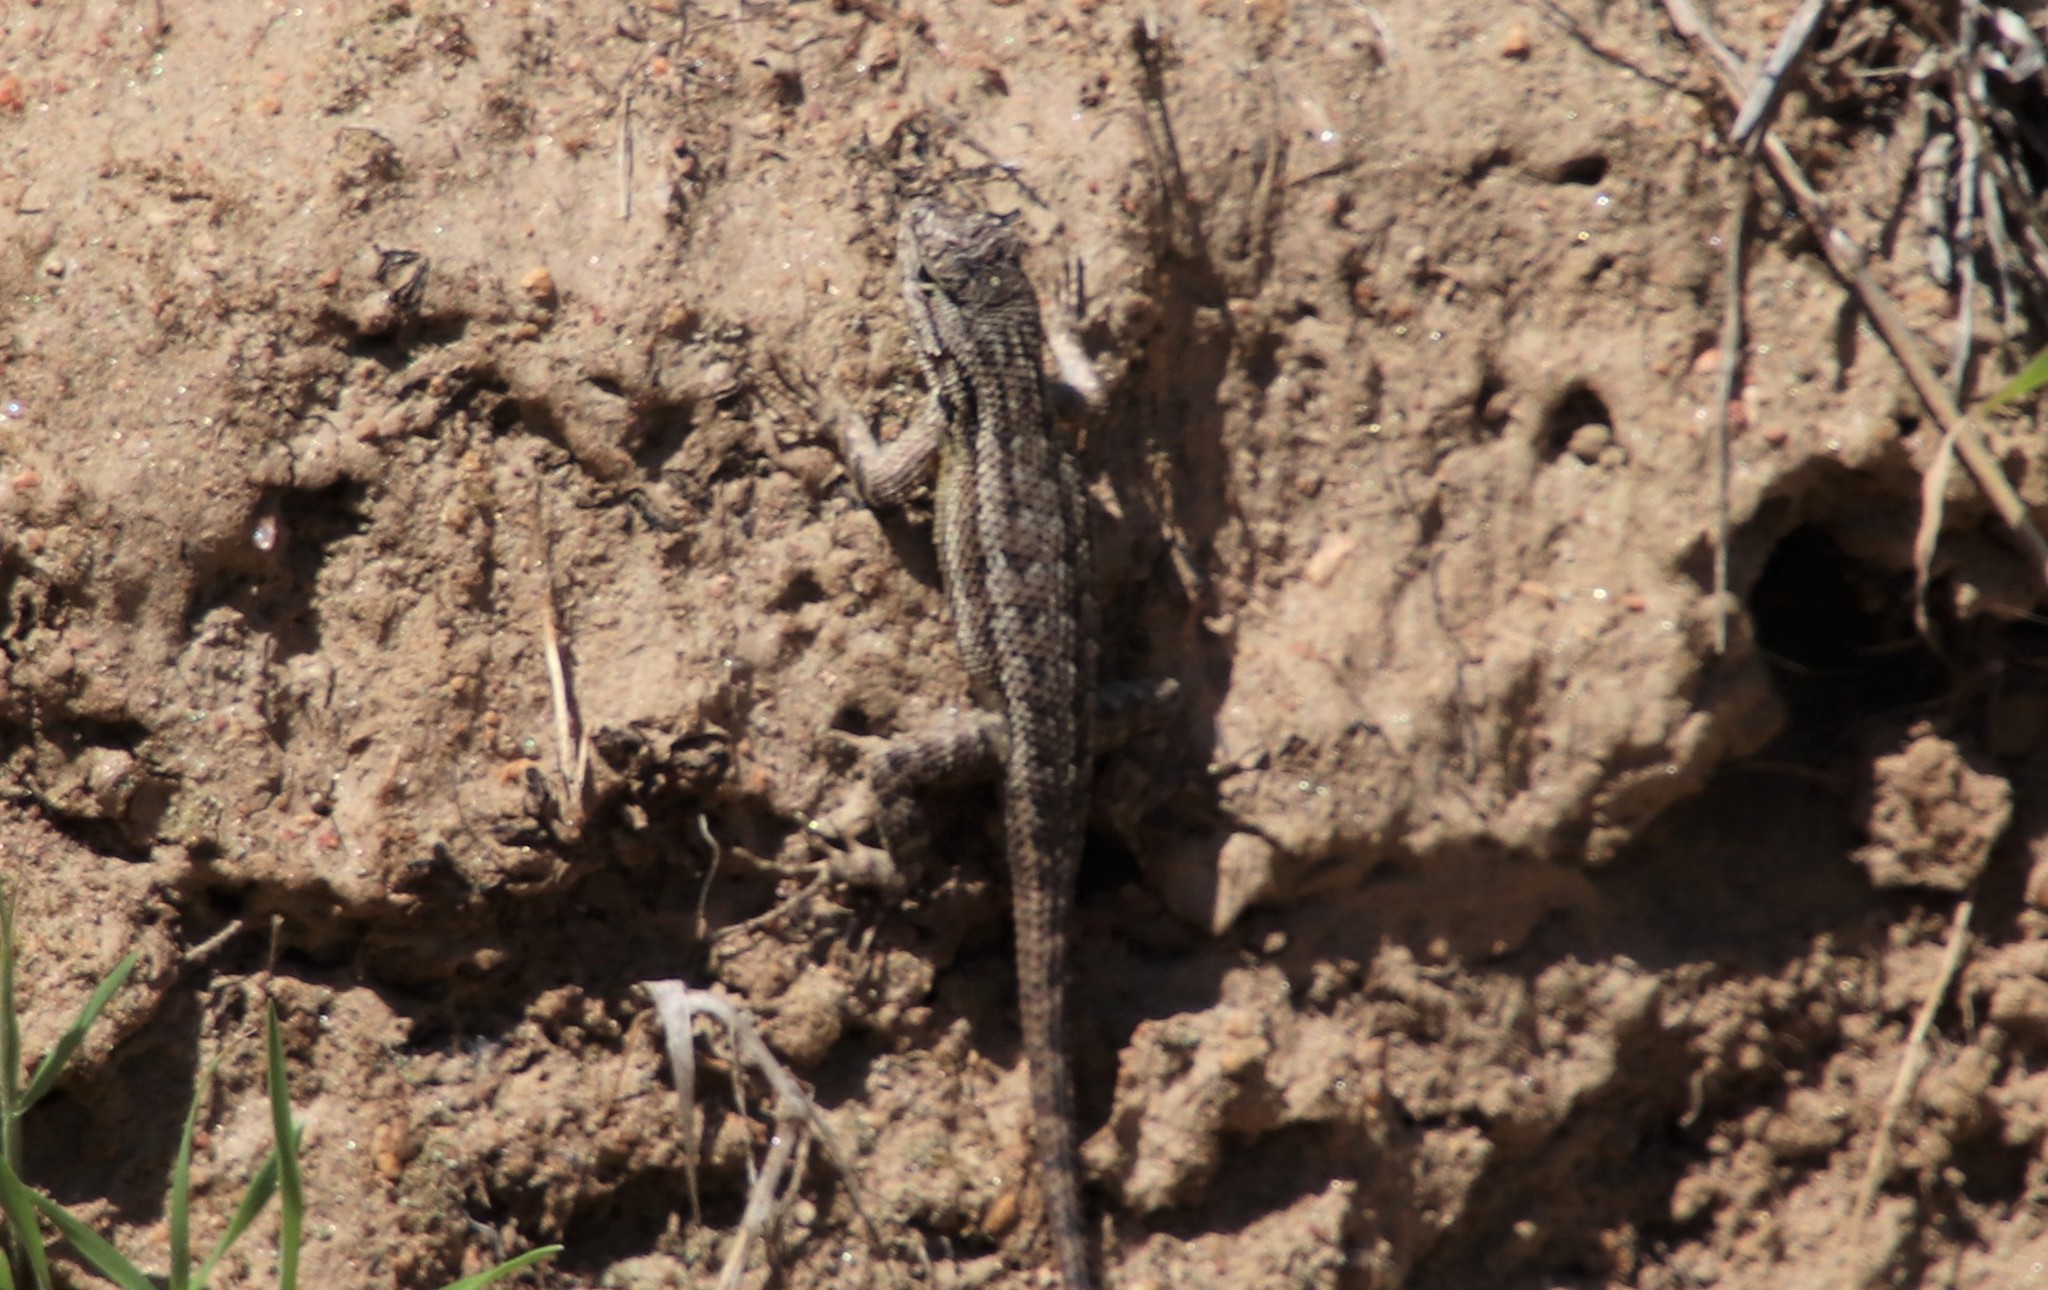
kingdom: Animalia
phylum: Chordata
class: Squamata
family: Phrynosomatidae
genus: Sceloporus
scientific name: Sceloporus occidentalis
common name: Western fence lizard
